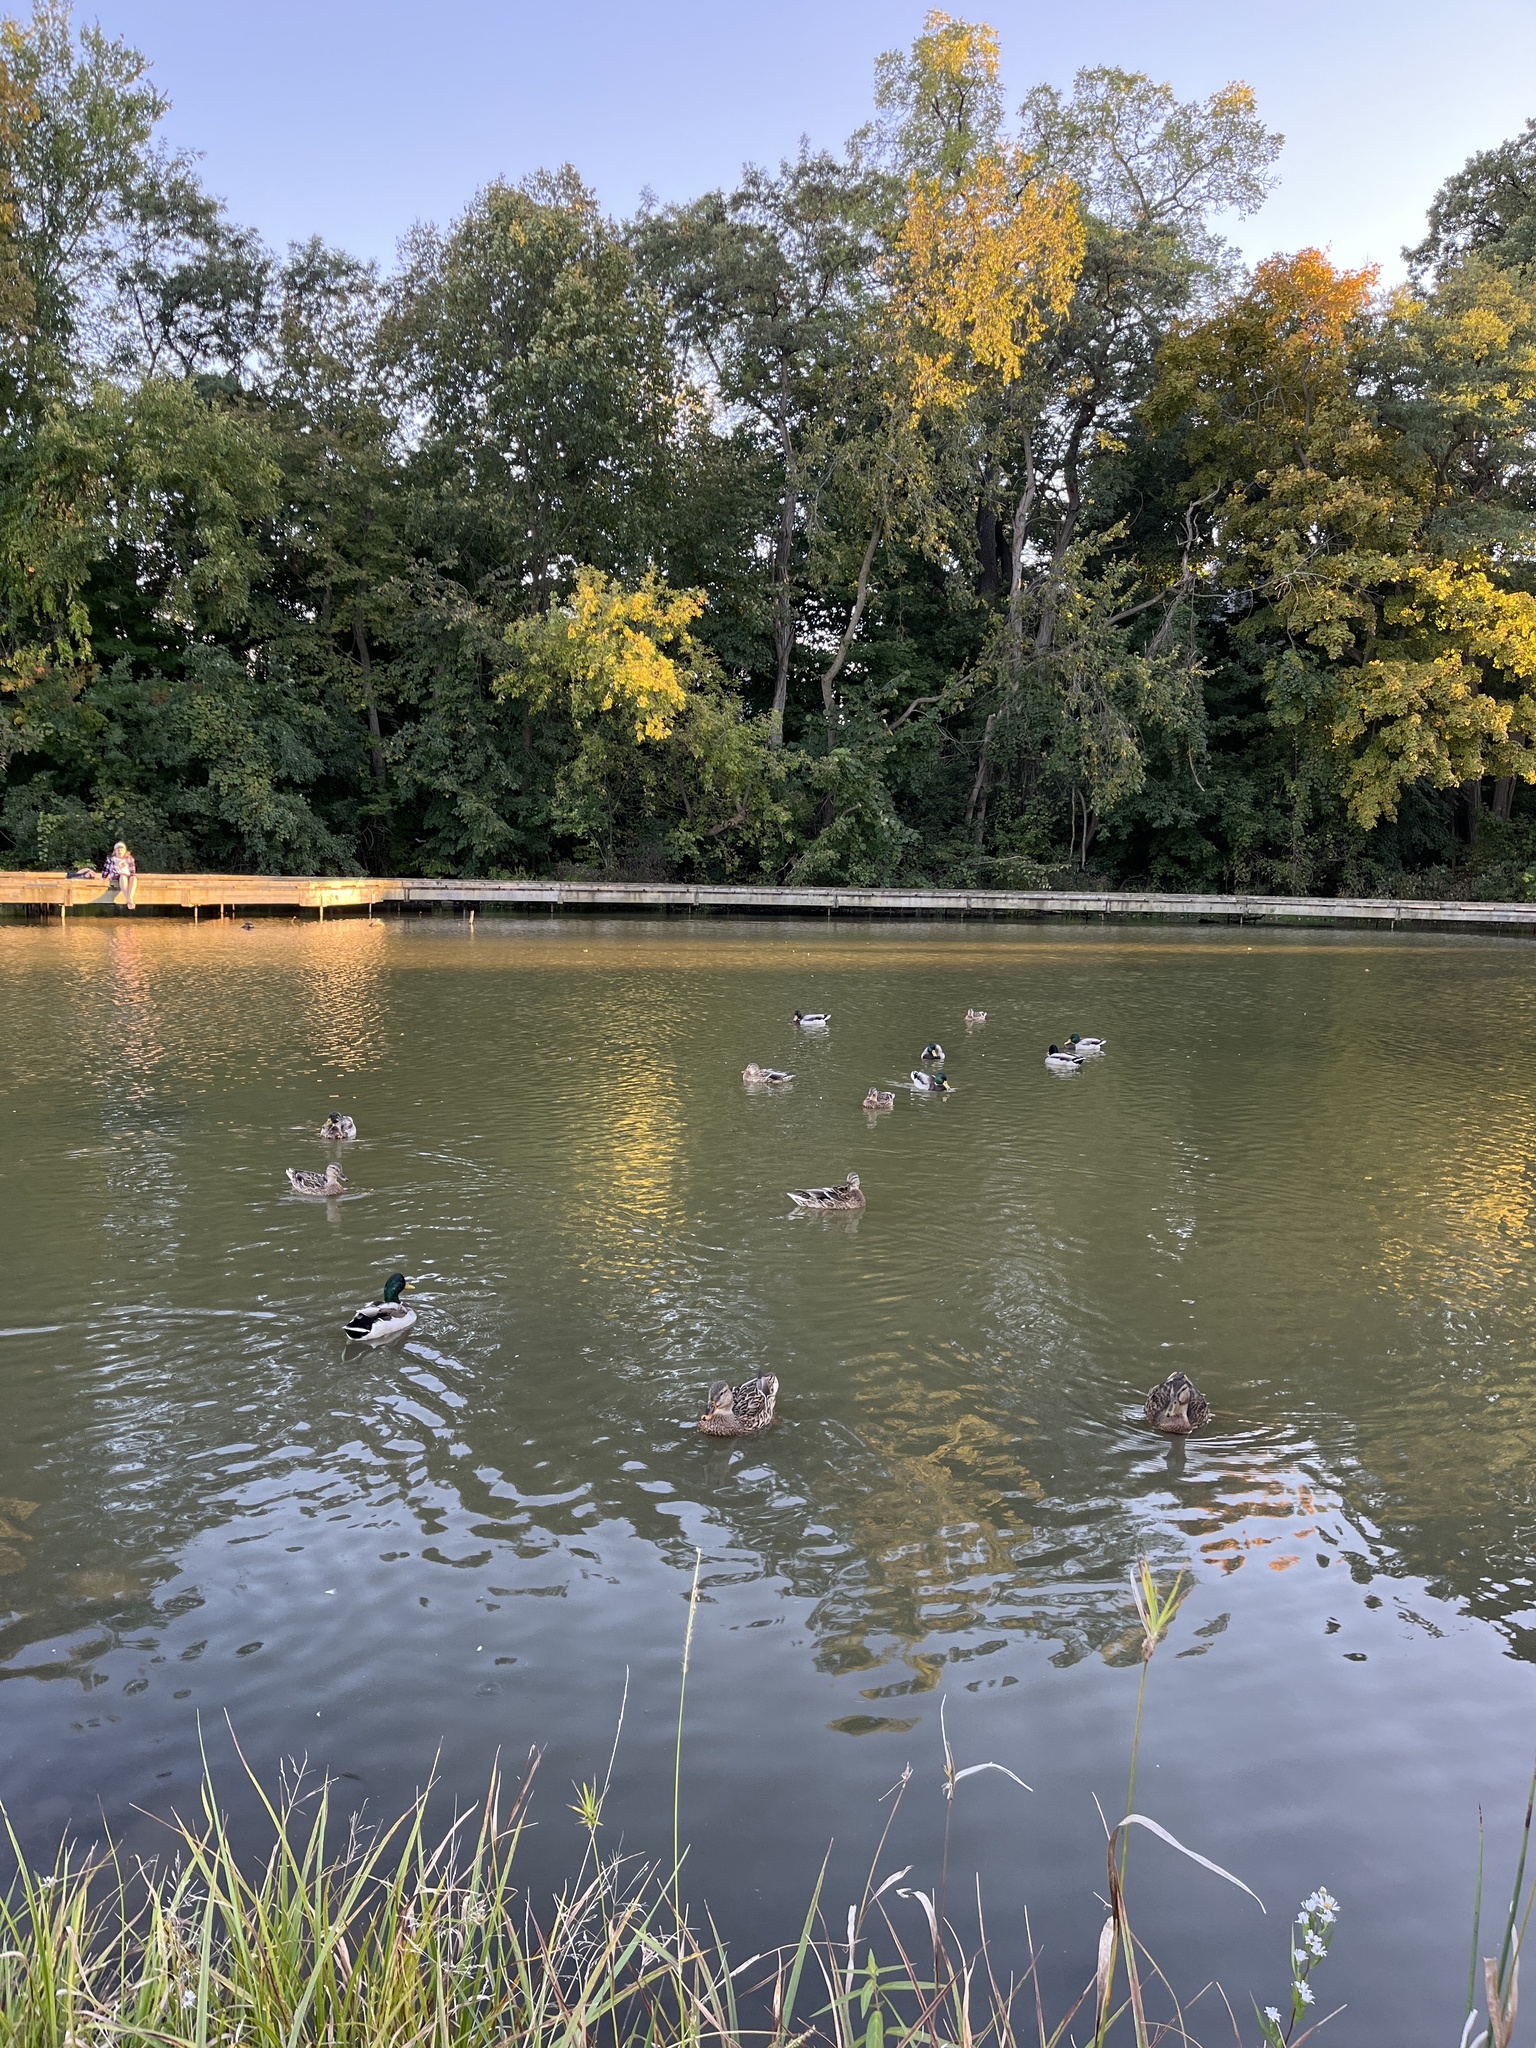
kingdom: Animalia
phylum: Chordata
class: Aves
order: Anseriformes
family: Anatidae
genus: Anas
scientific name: Anas platyrhynchos
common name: Mallard
